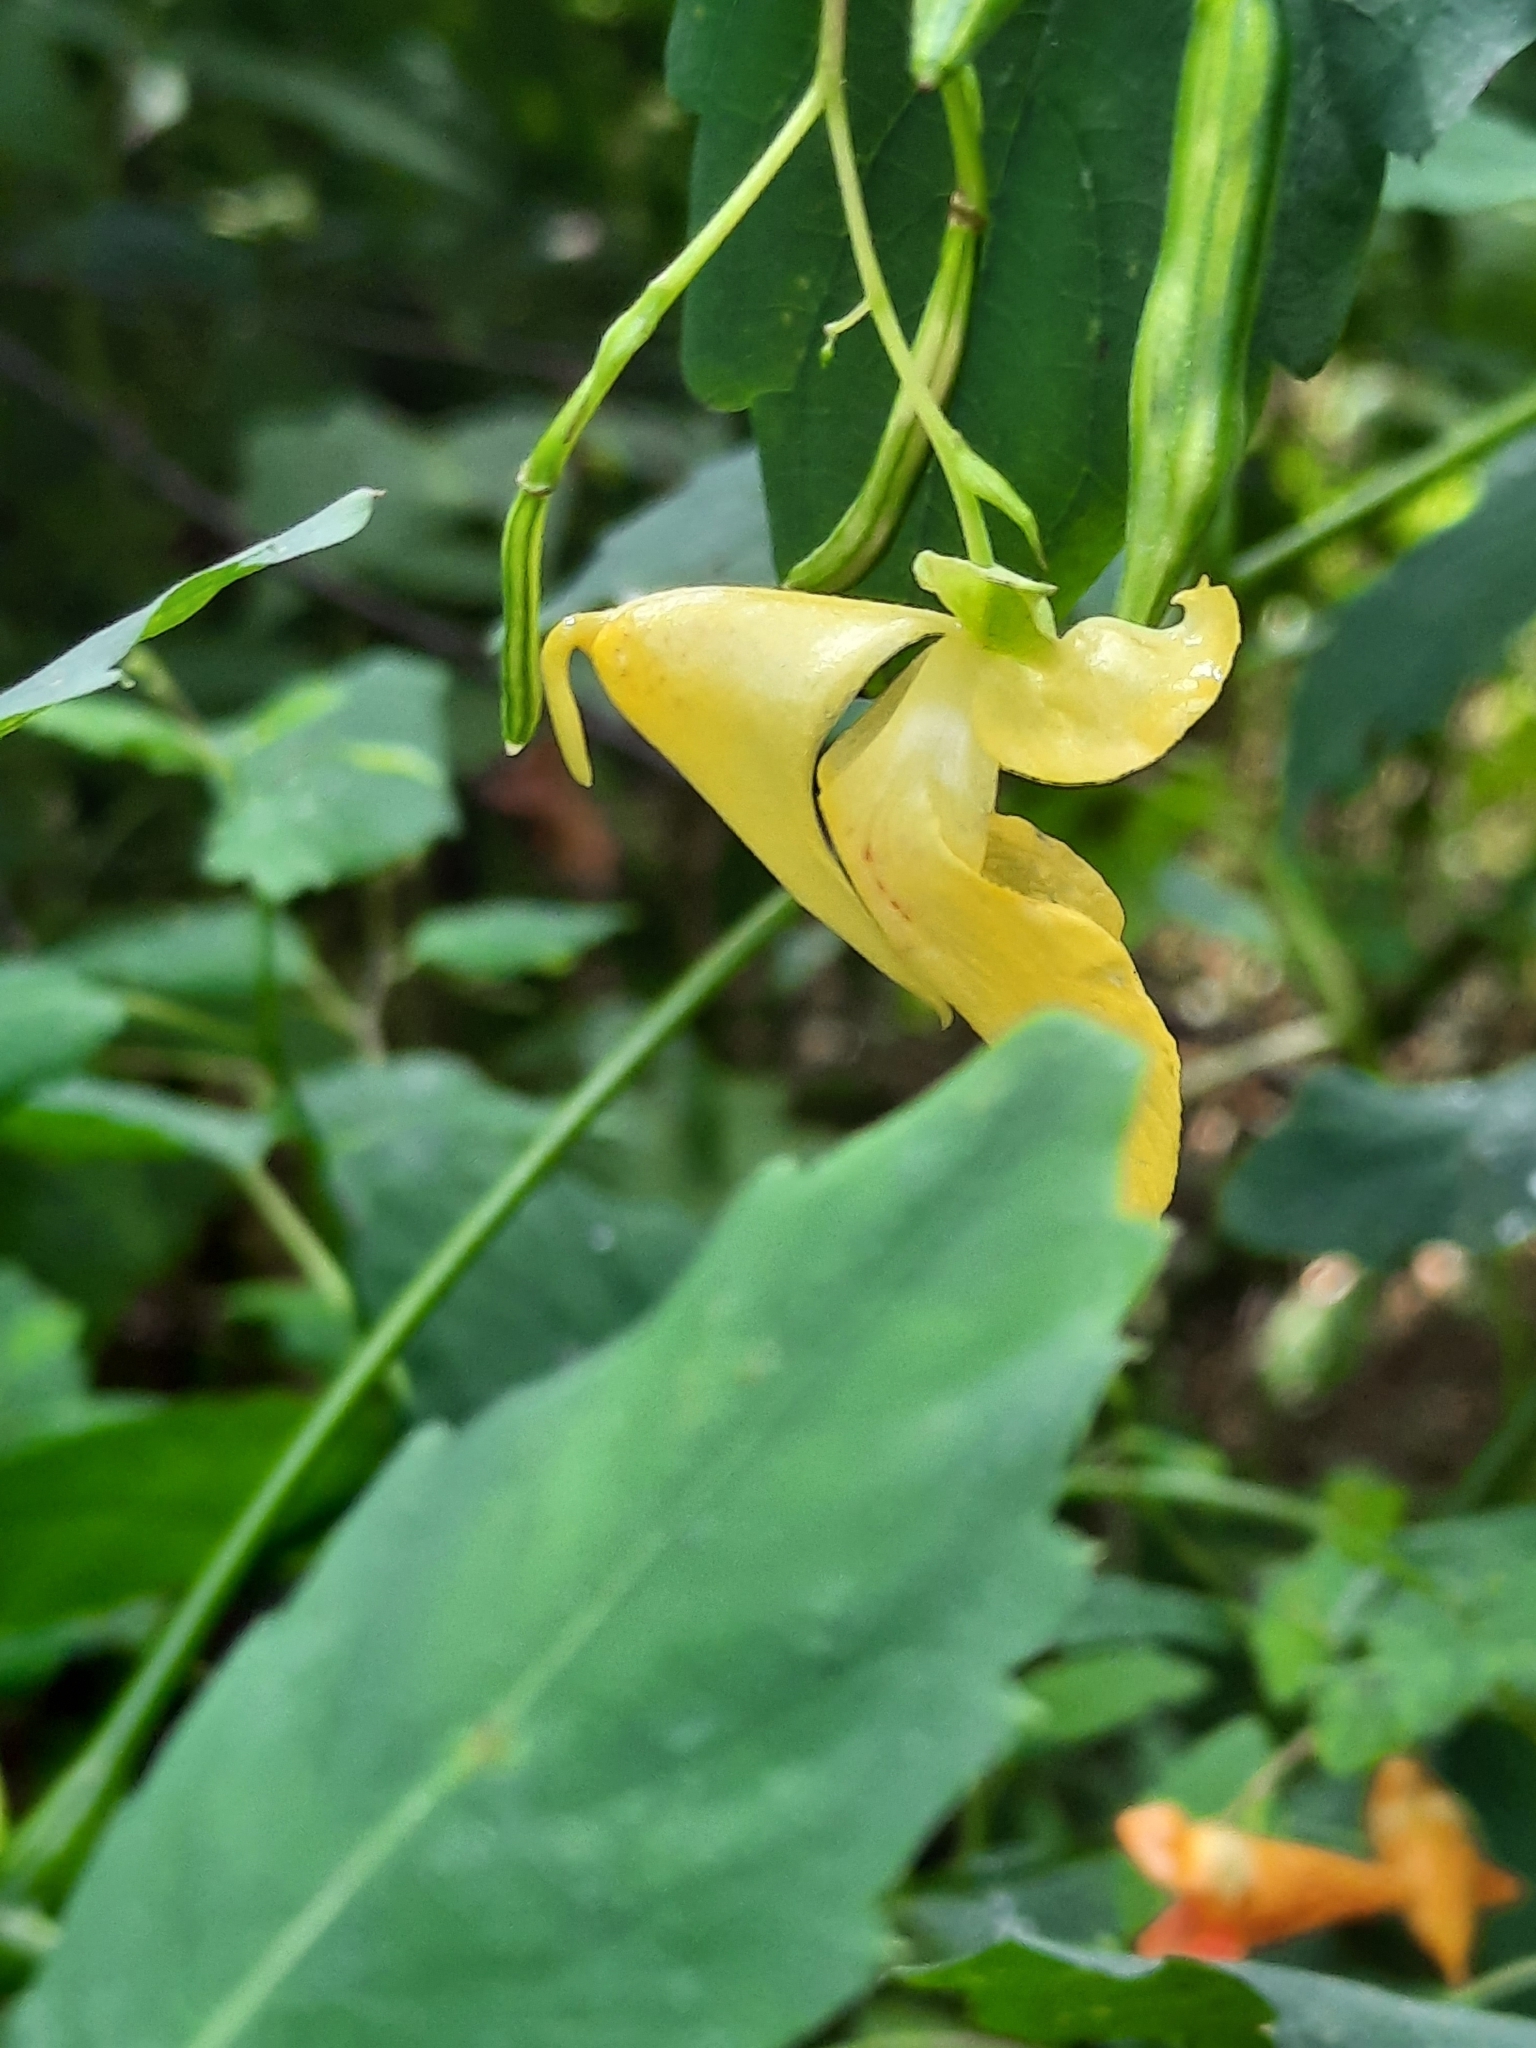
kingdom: Plantae
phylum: Tracheophyta
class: Magnoliopsida
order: Ericales
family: Balsaminaceae
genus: Impatiens
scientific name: Impatiens pallida
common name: Pale snapweed
